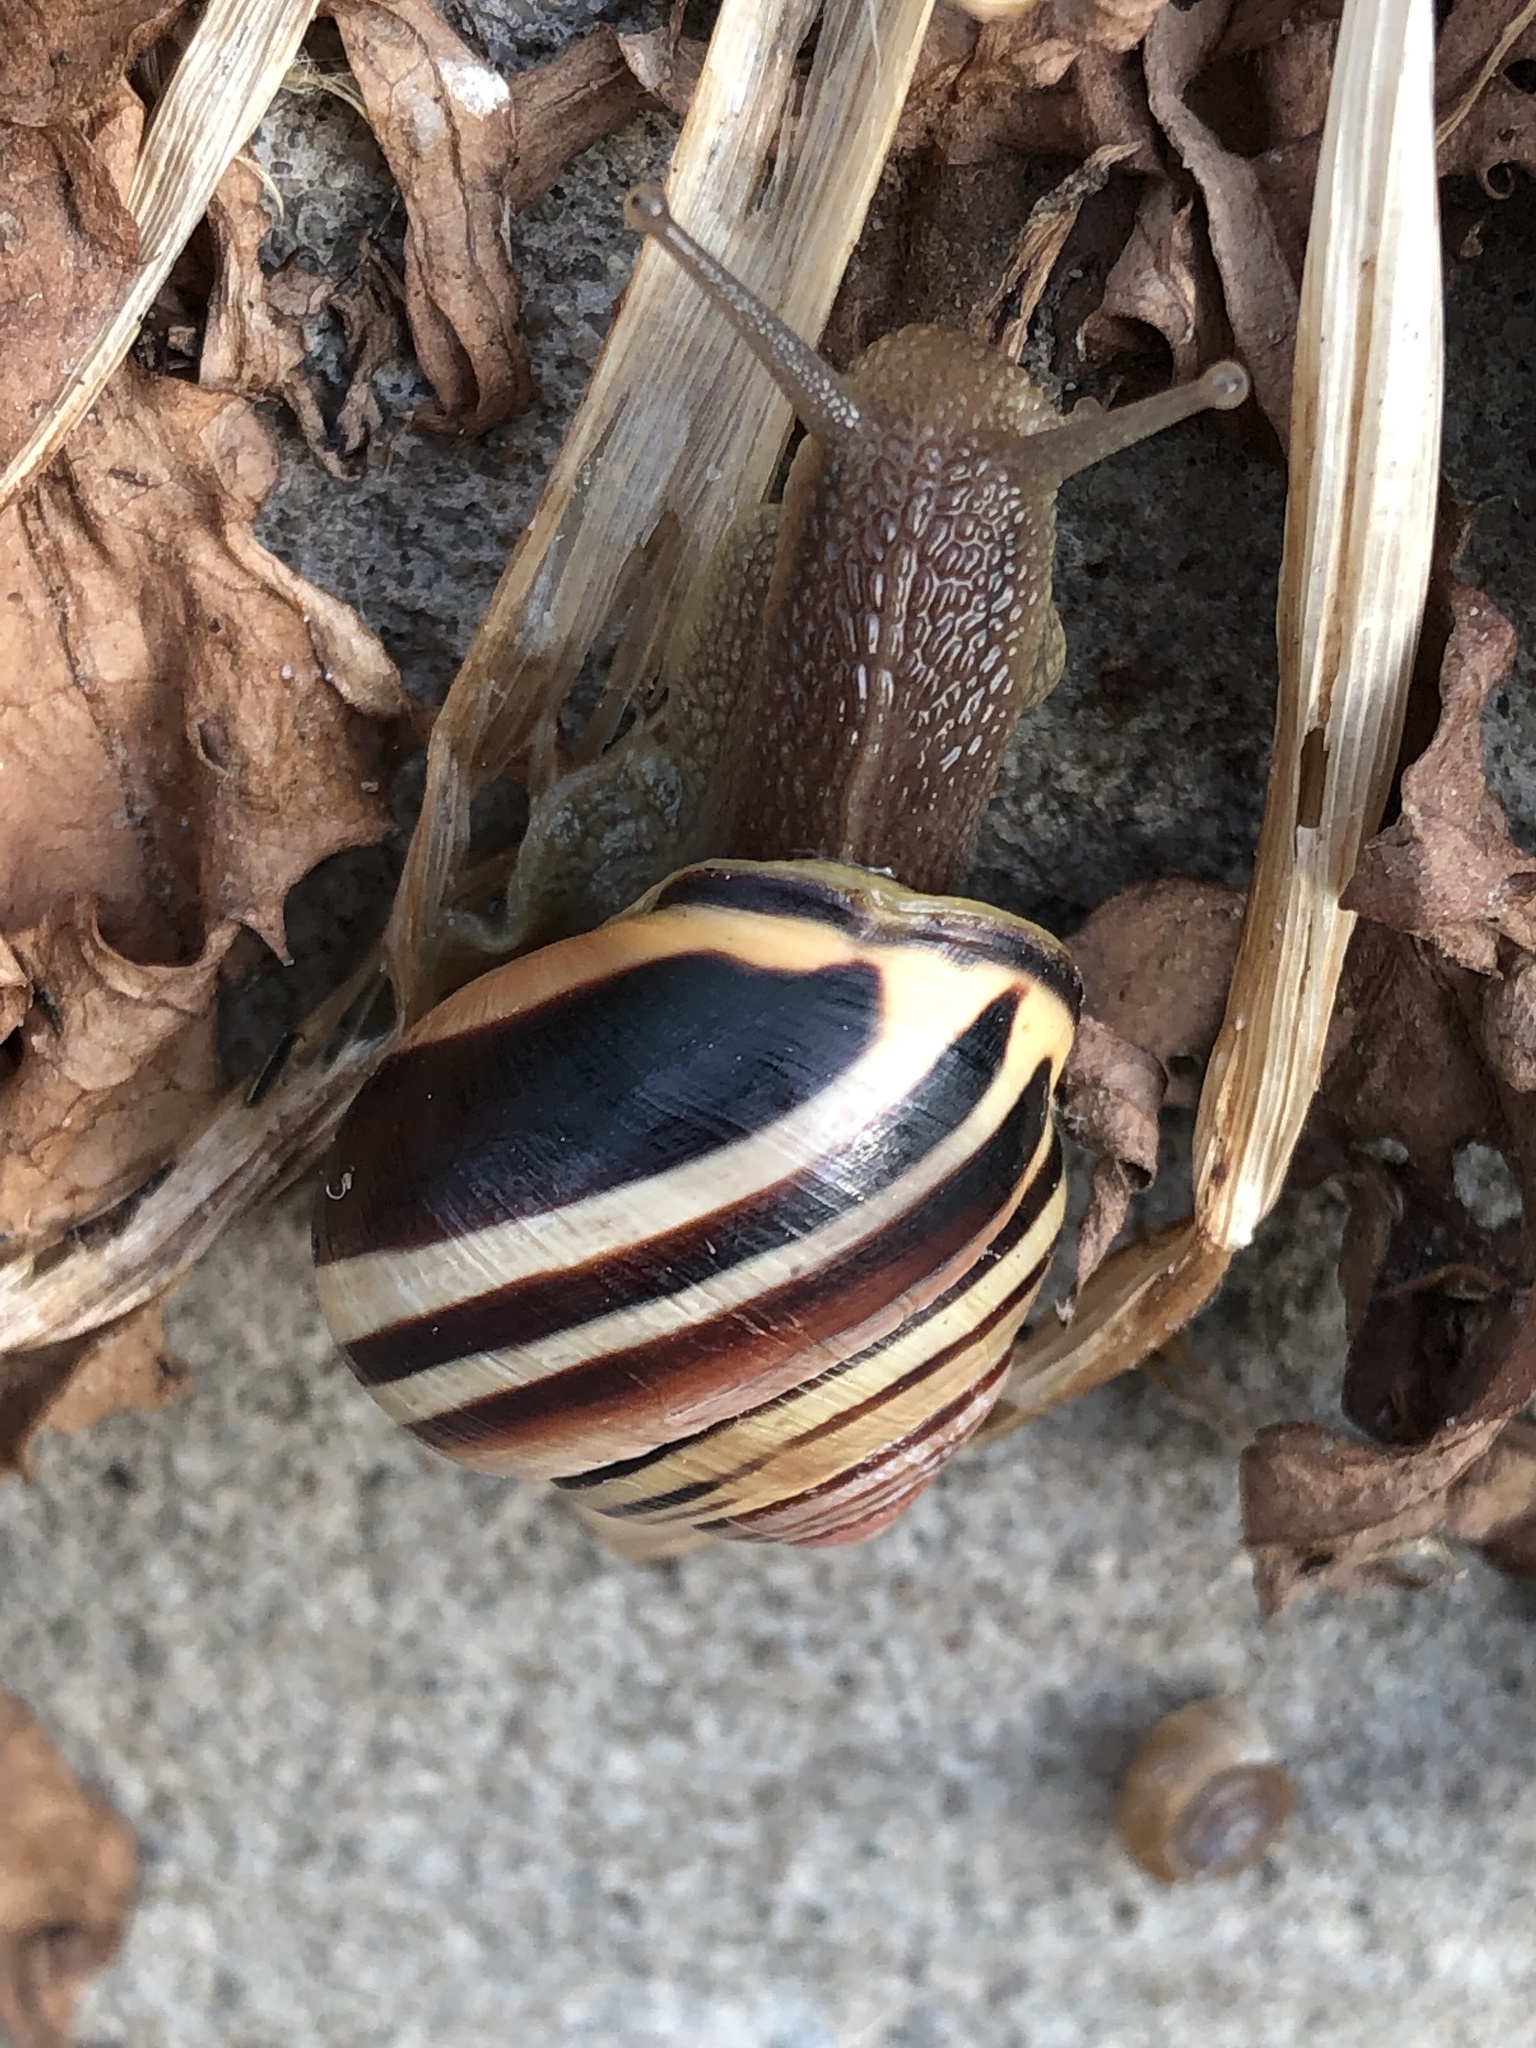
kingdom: Animalia
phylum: Mollusca
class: Gastropoda
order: Stylommatophora
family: Helicidae
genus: Cepaea
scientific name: Cepaea nemoralis
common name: Grovesnail
